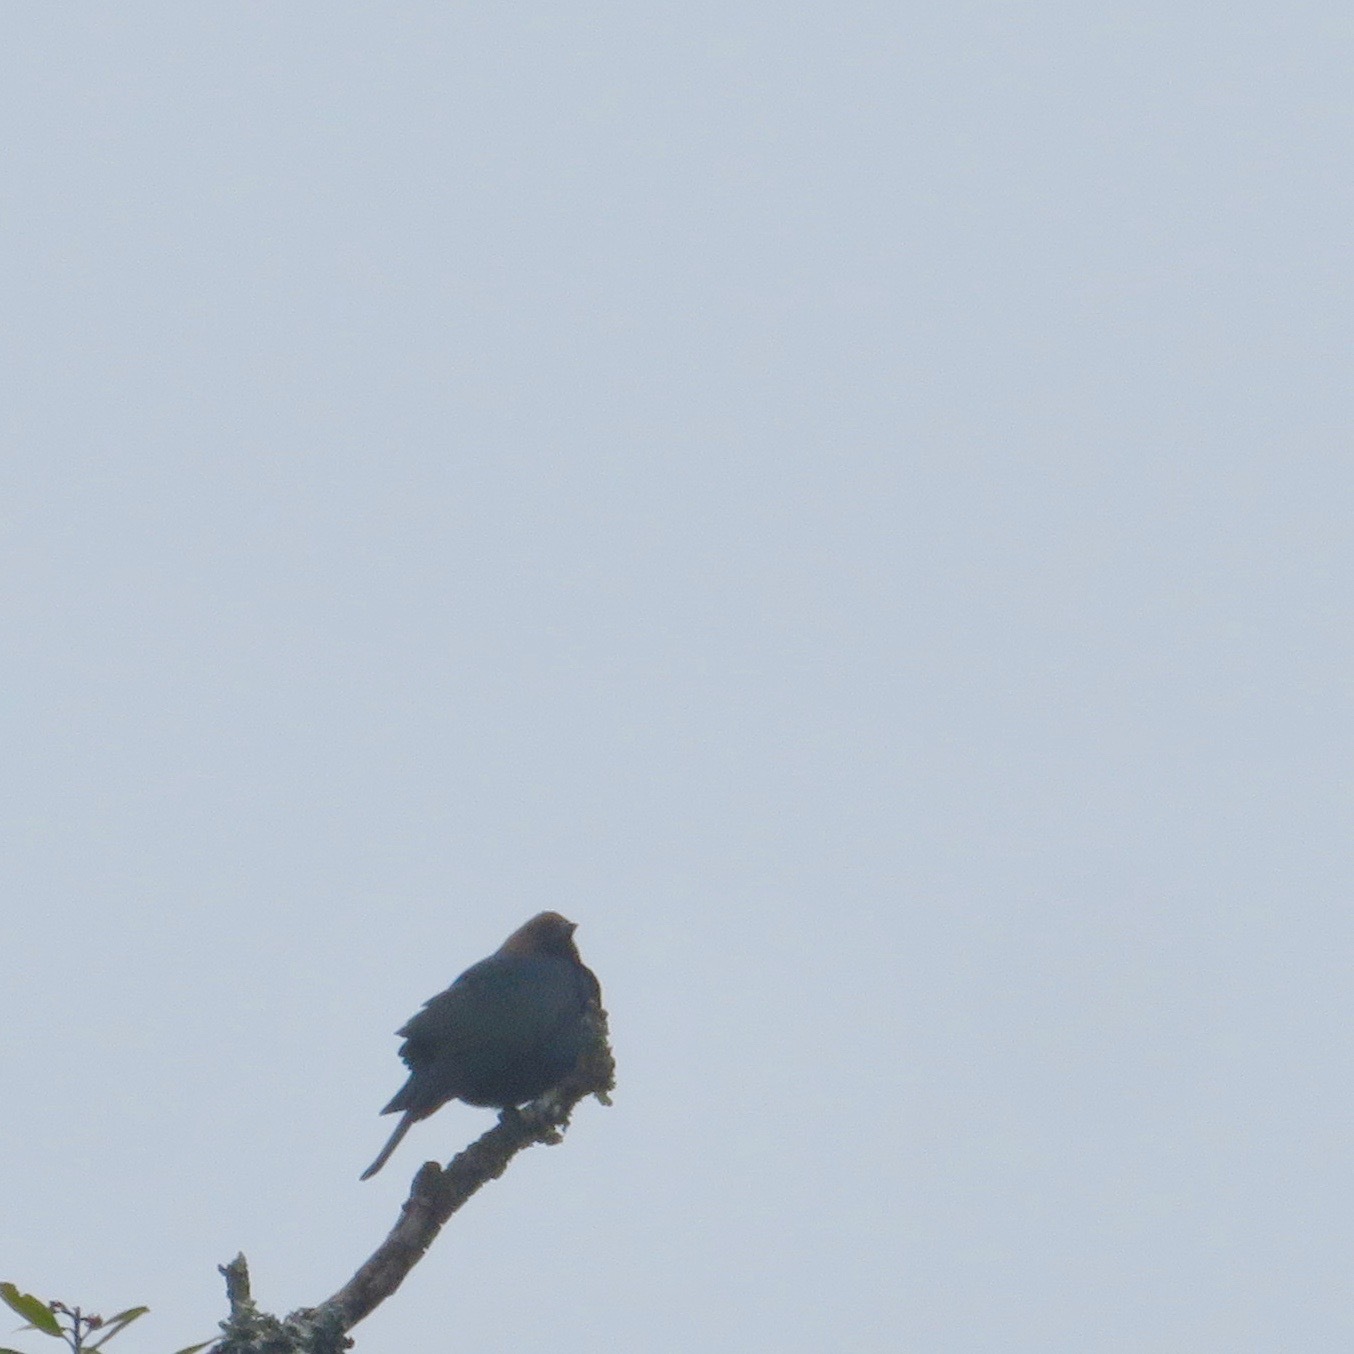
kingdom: Animalia
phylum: Chordata
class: Aves
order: Passeriformes
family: Icteridae
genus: Molothrus
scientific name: Molothrus ater
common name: Brown-headed cowbird
